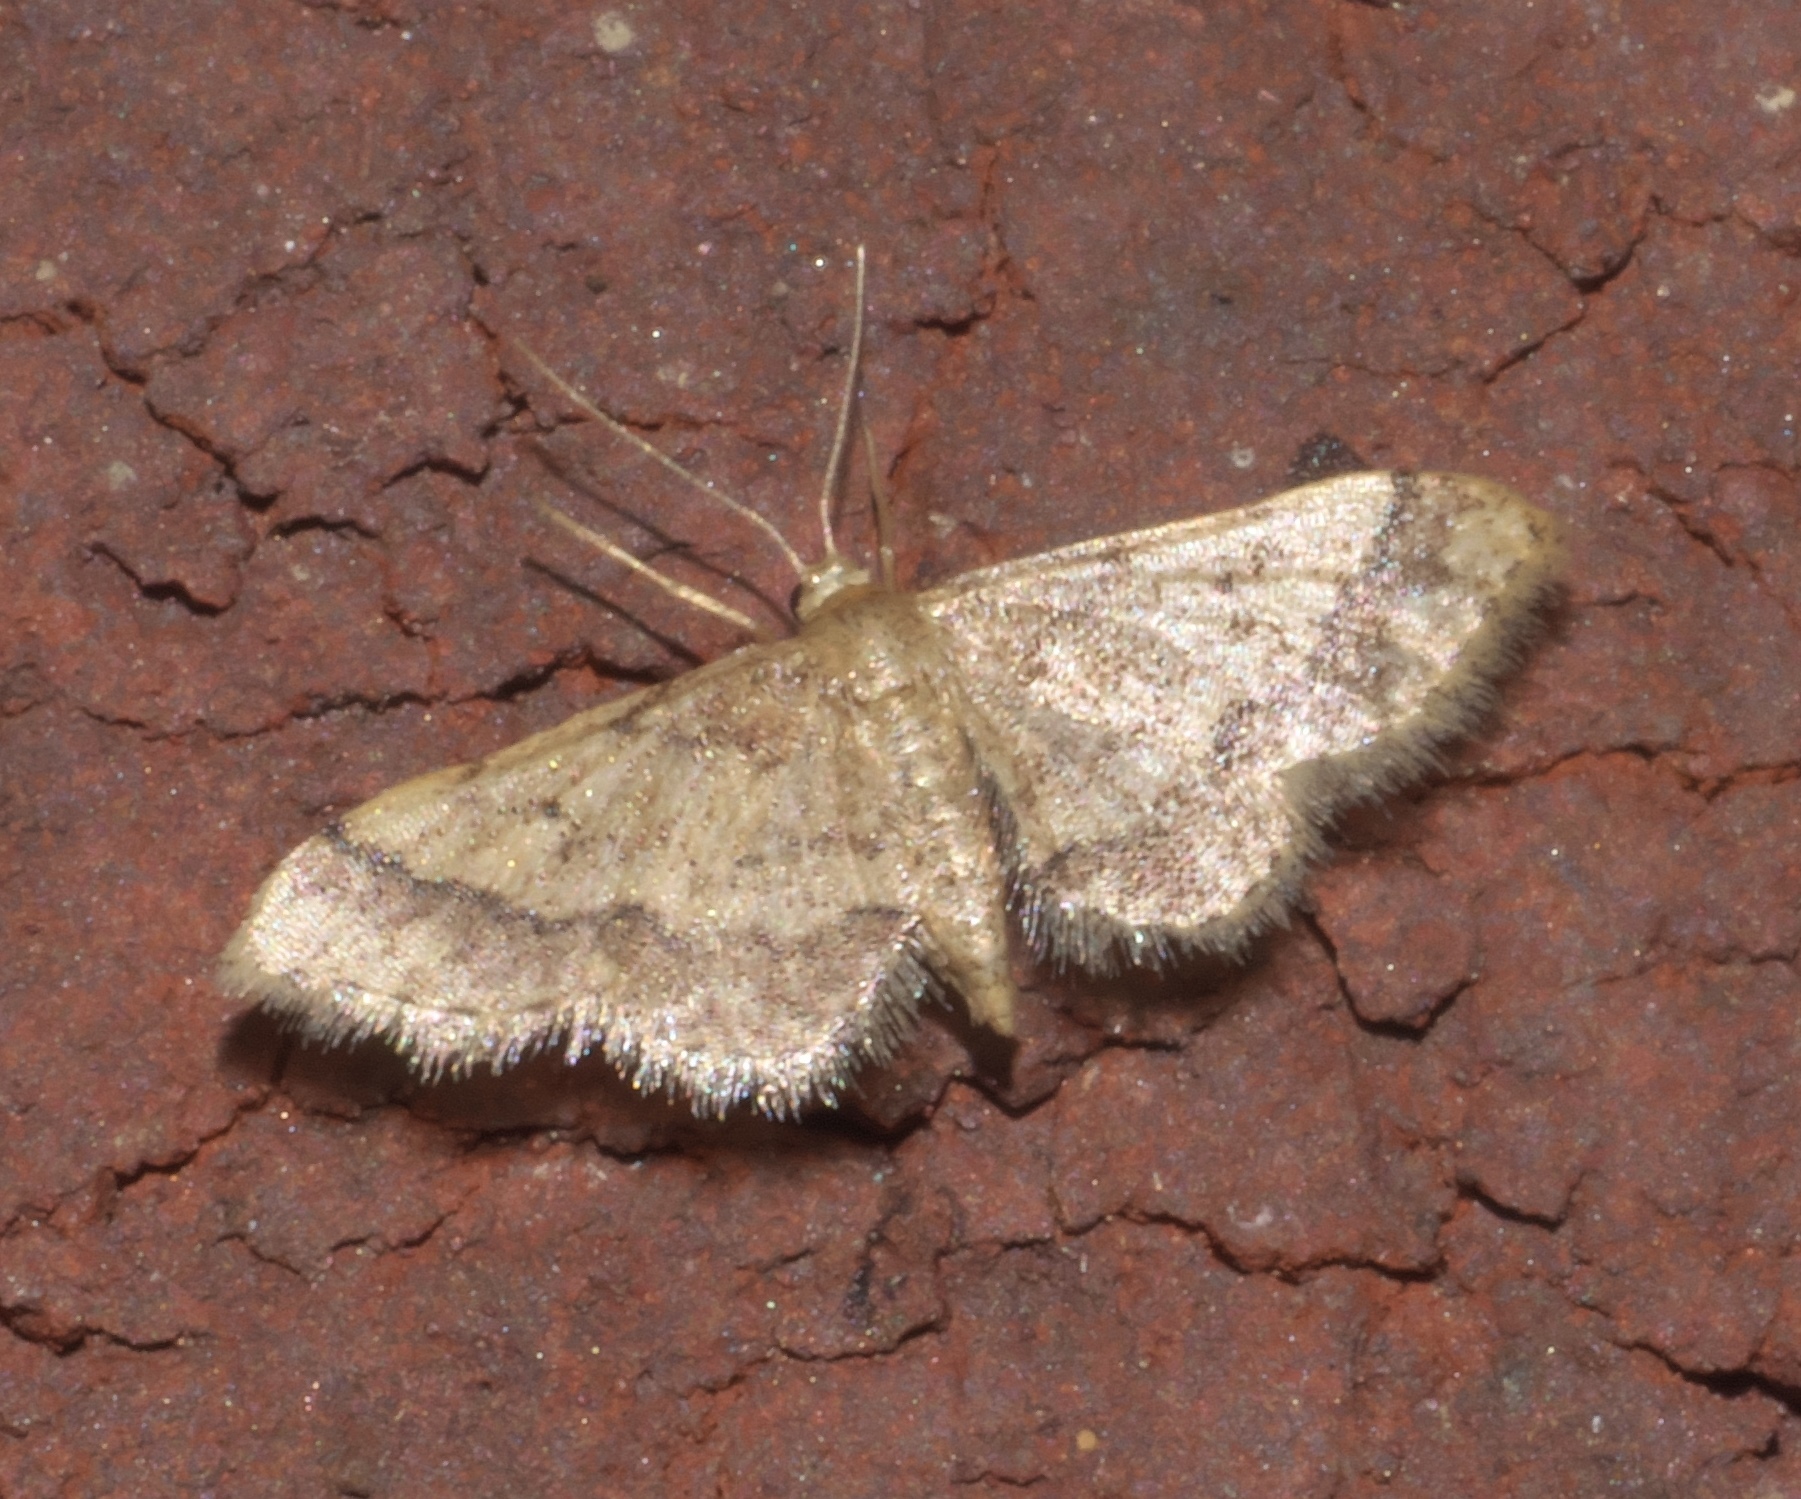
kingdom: Animalia
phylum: Arthropoda
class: Insecta
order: Lepidoptera
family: Geometridae
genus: Idaea
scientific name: Idaea celtima
